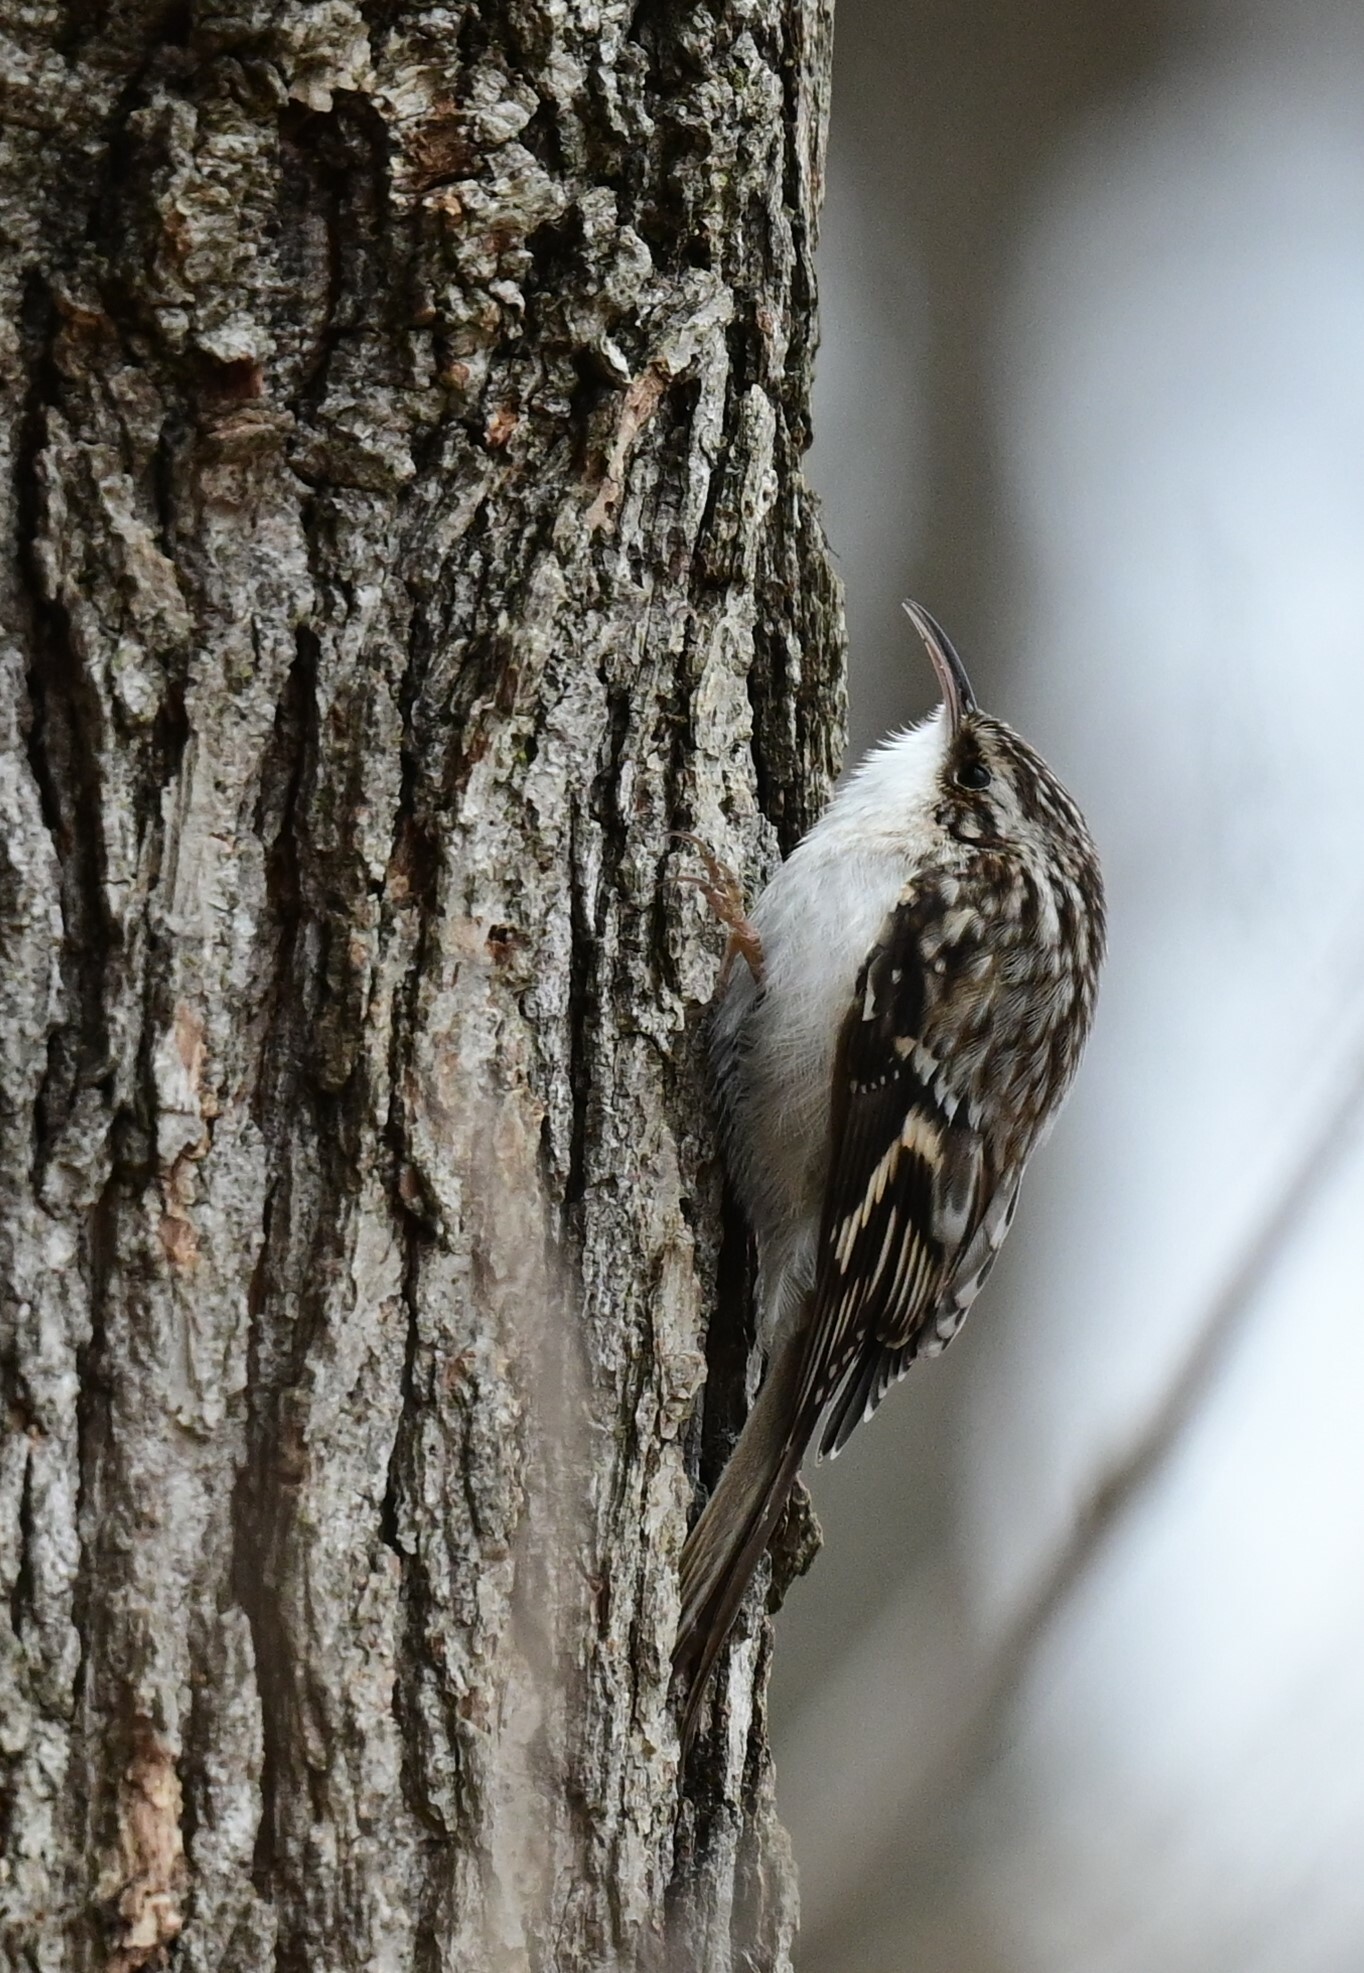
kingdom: Animalia
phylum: Chordata
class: Aves
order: Passeriformes
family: Certhiidae
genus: Certhia
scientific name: Certhia americana
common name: Brown creeper
